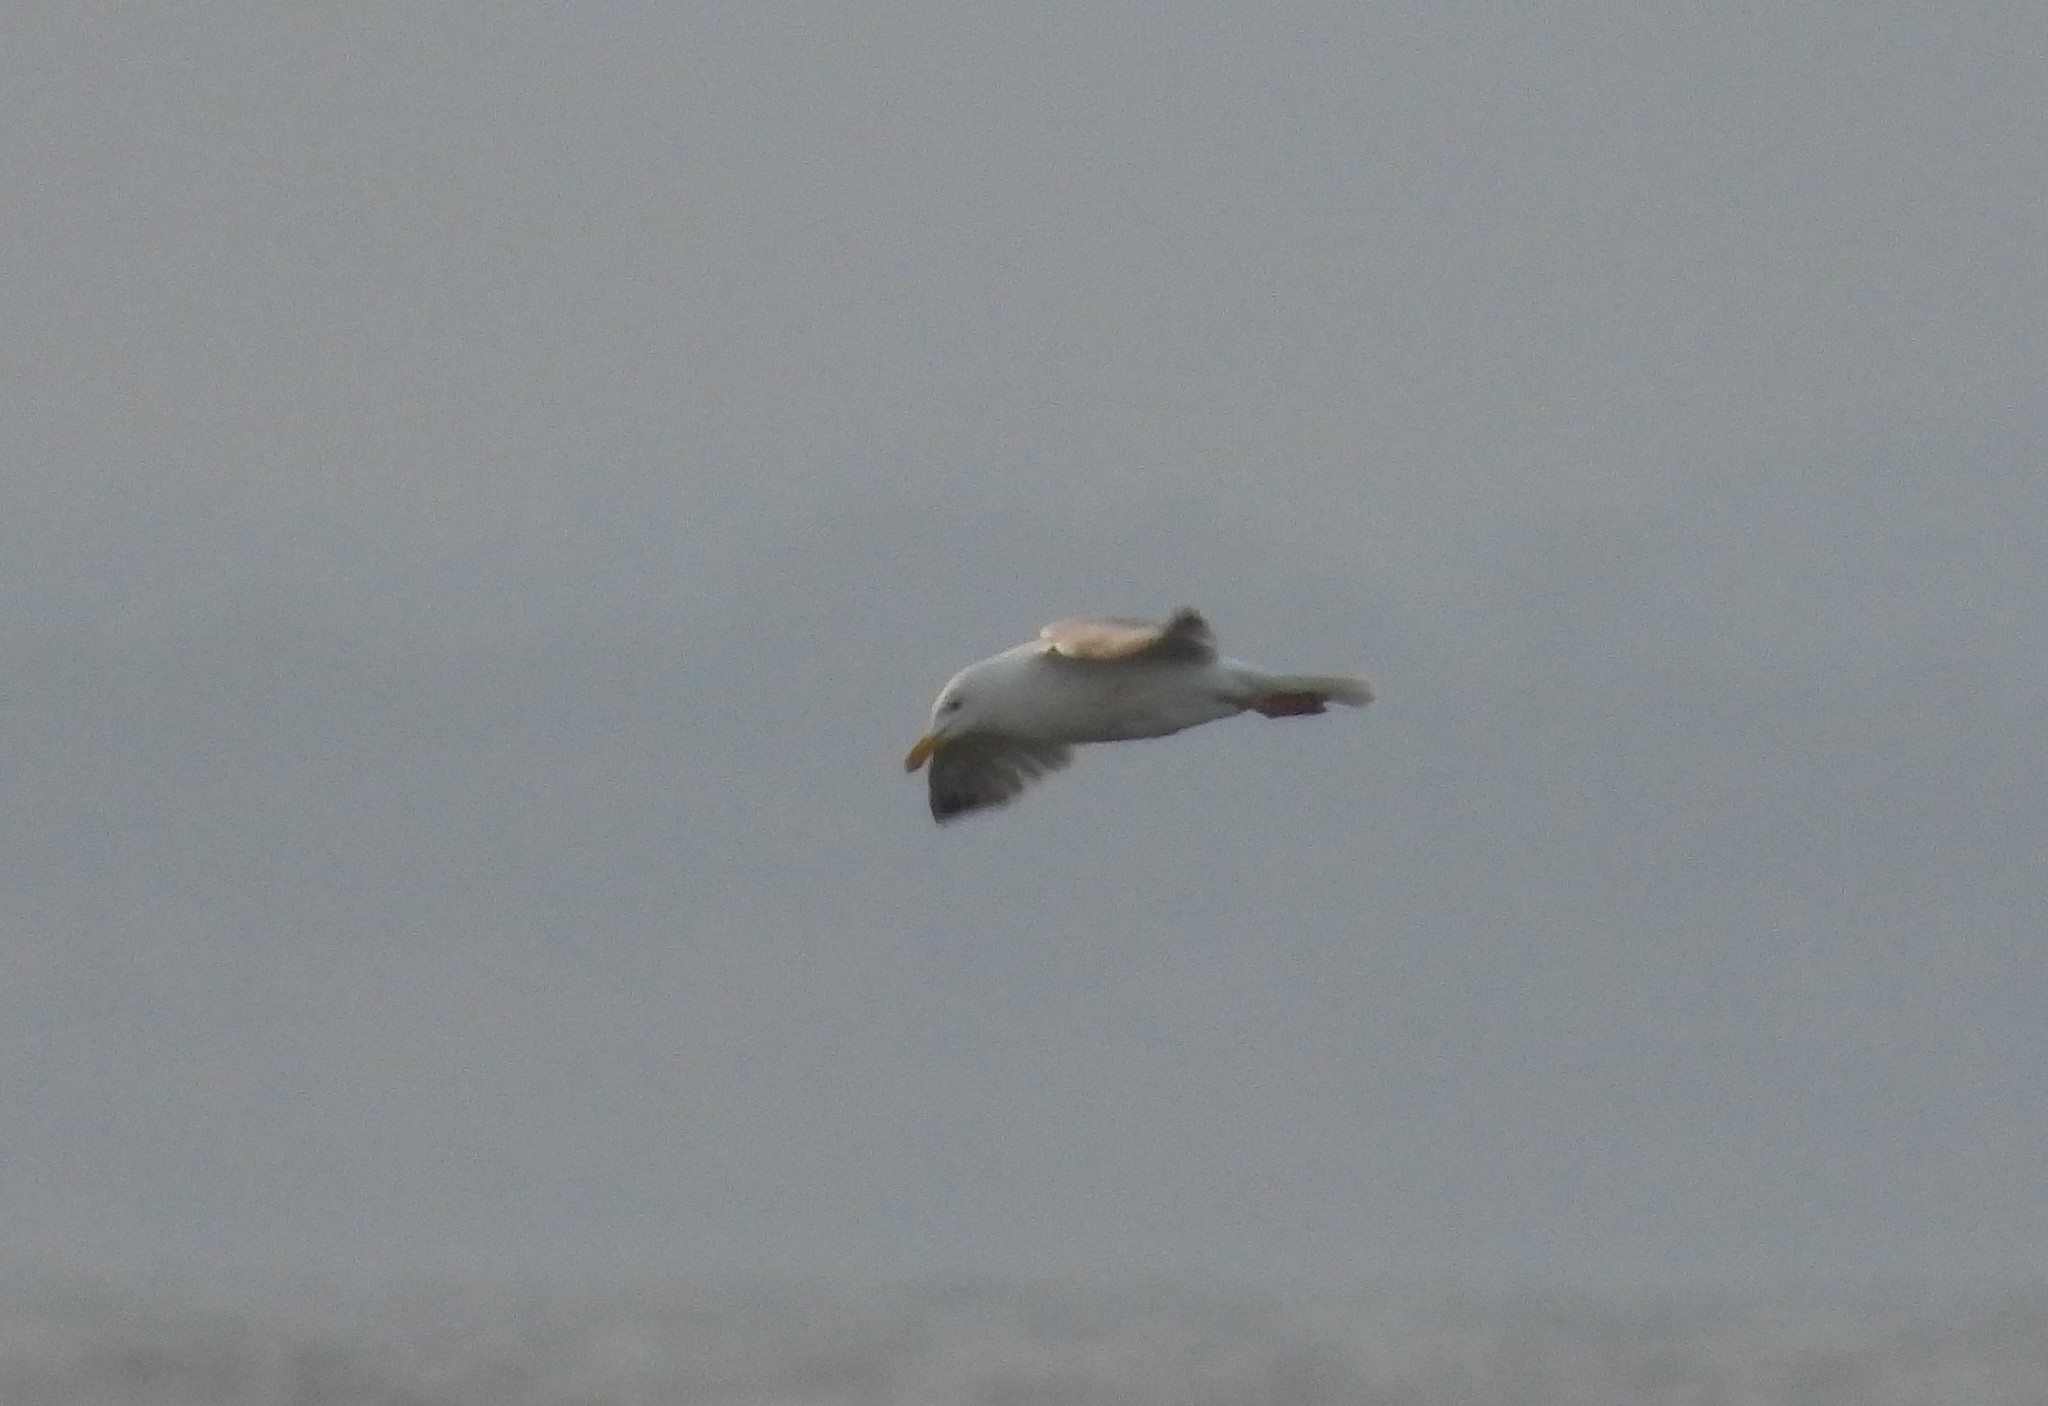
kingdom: Animalia
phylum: Chordata
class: Aves
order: Charadriiformes
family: Laridae
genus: Larus
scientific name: Larus argentatus
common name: Herring gull
